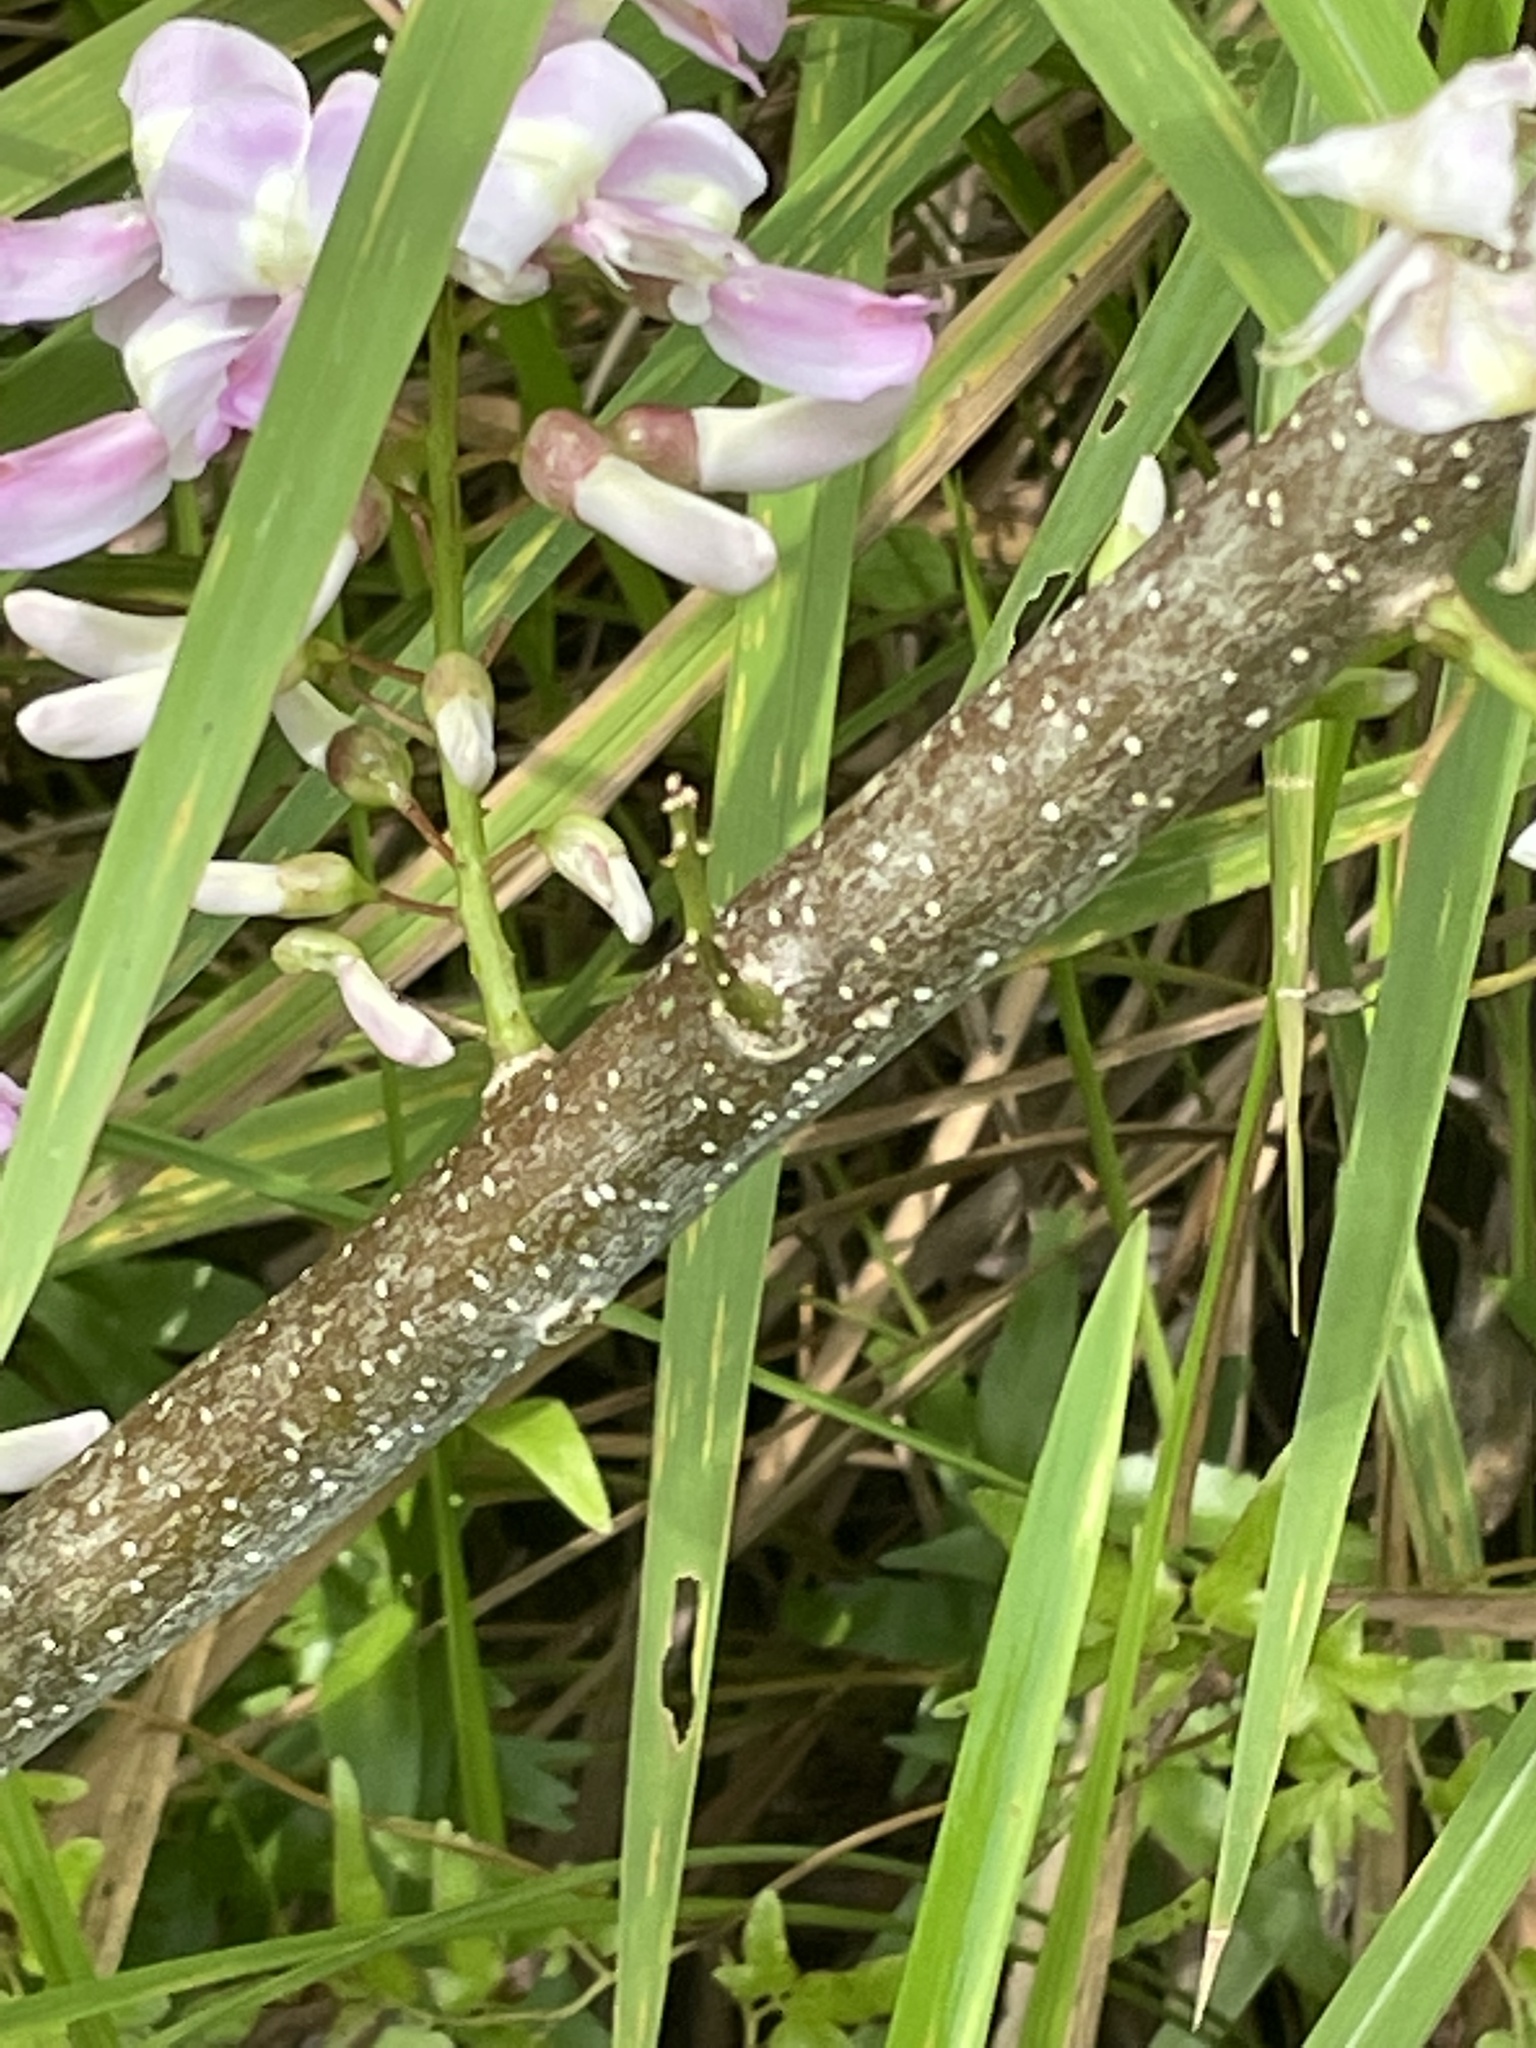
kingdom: Plantae
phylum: Tracheophyta
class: Magnoliopsida
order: Fabales
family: Fabaceae
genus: Gliricidia
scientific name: Gliricidia sepium
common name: Quickstick
